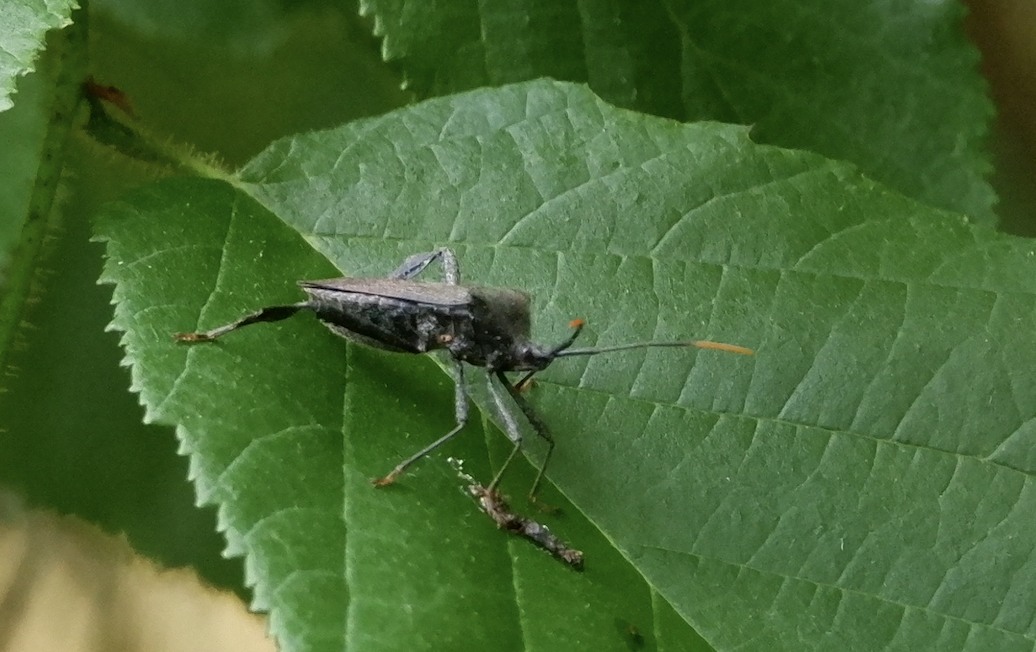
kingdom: Animalia
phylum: Arthropoda
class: Insecta
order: Hemiptera
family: Coreidae
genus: Acanthocephala
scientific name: Acanthocephala terminalis
